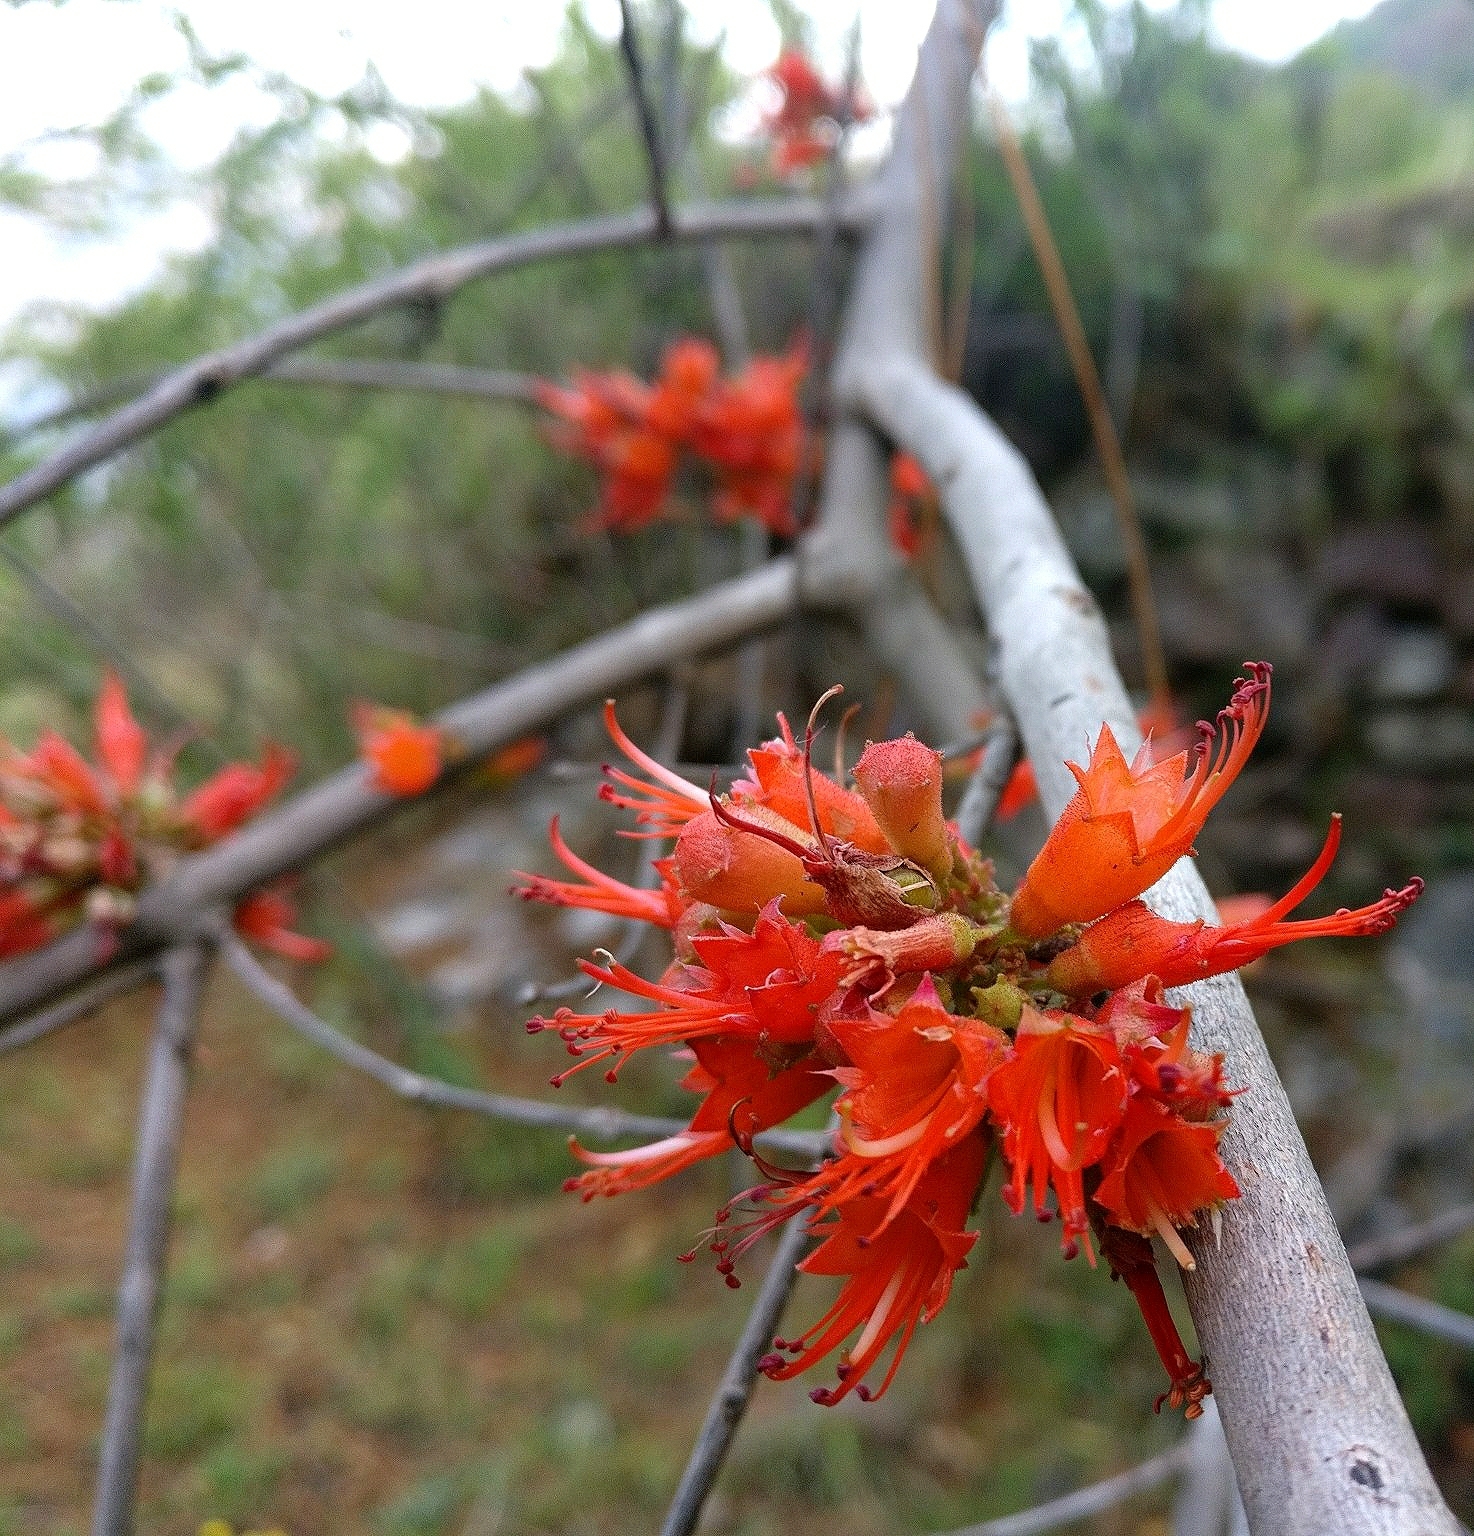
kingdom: Plantae
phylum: Tracheophyta
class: Magnoliopsida
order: Myrtales
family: Lythraceae
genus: Woodfordia
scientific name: Woodfordia fruticosa
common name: Shiranji-tea
